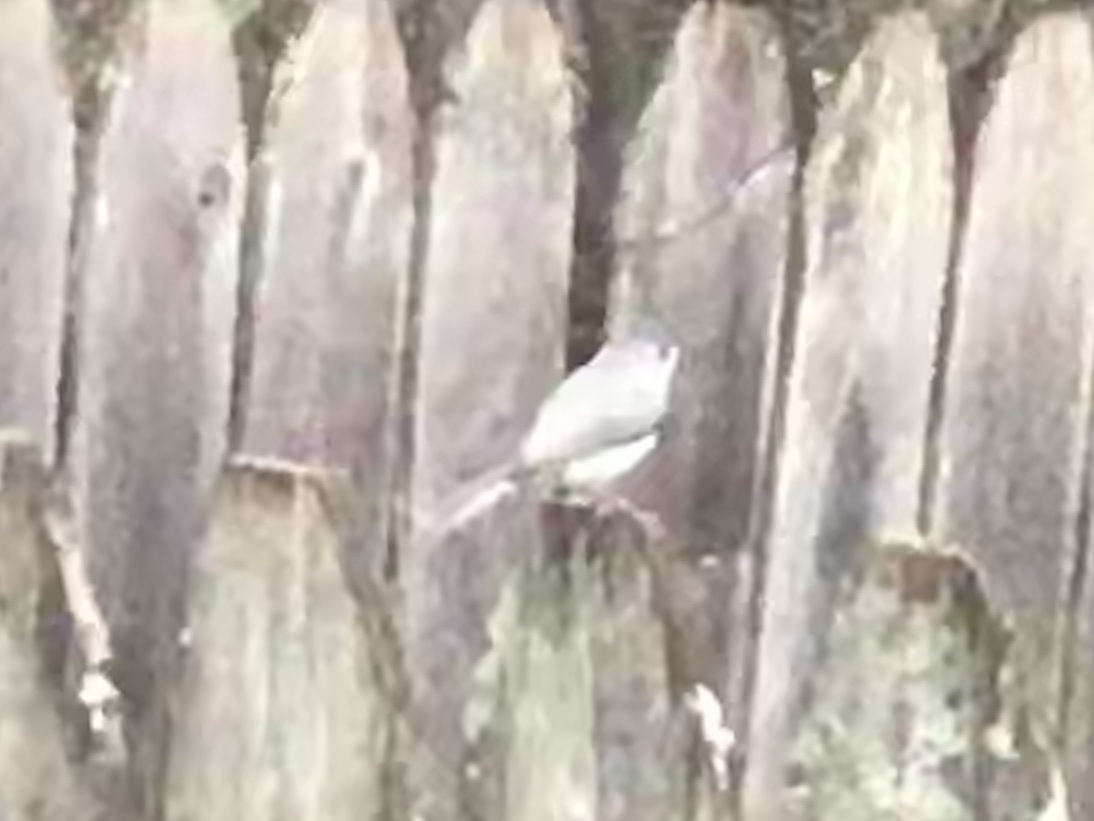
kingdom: Animalia
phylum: Chordata
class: Aves
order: Passeriformes
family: Paridae
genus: Baeolophus
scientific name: Baeolophus bicolor
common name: Tufted titmouse
